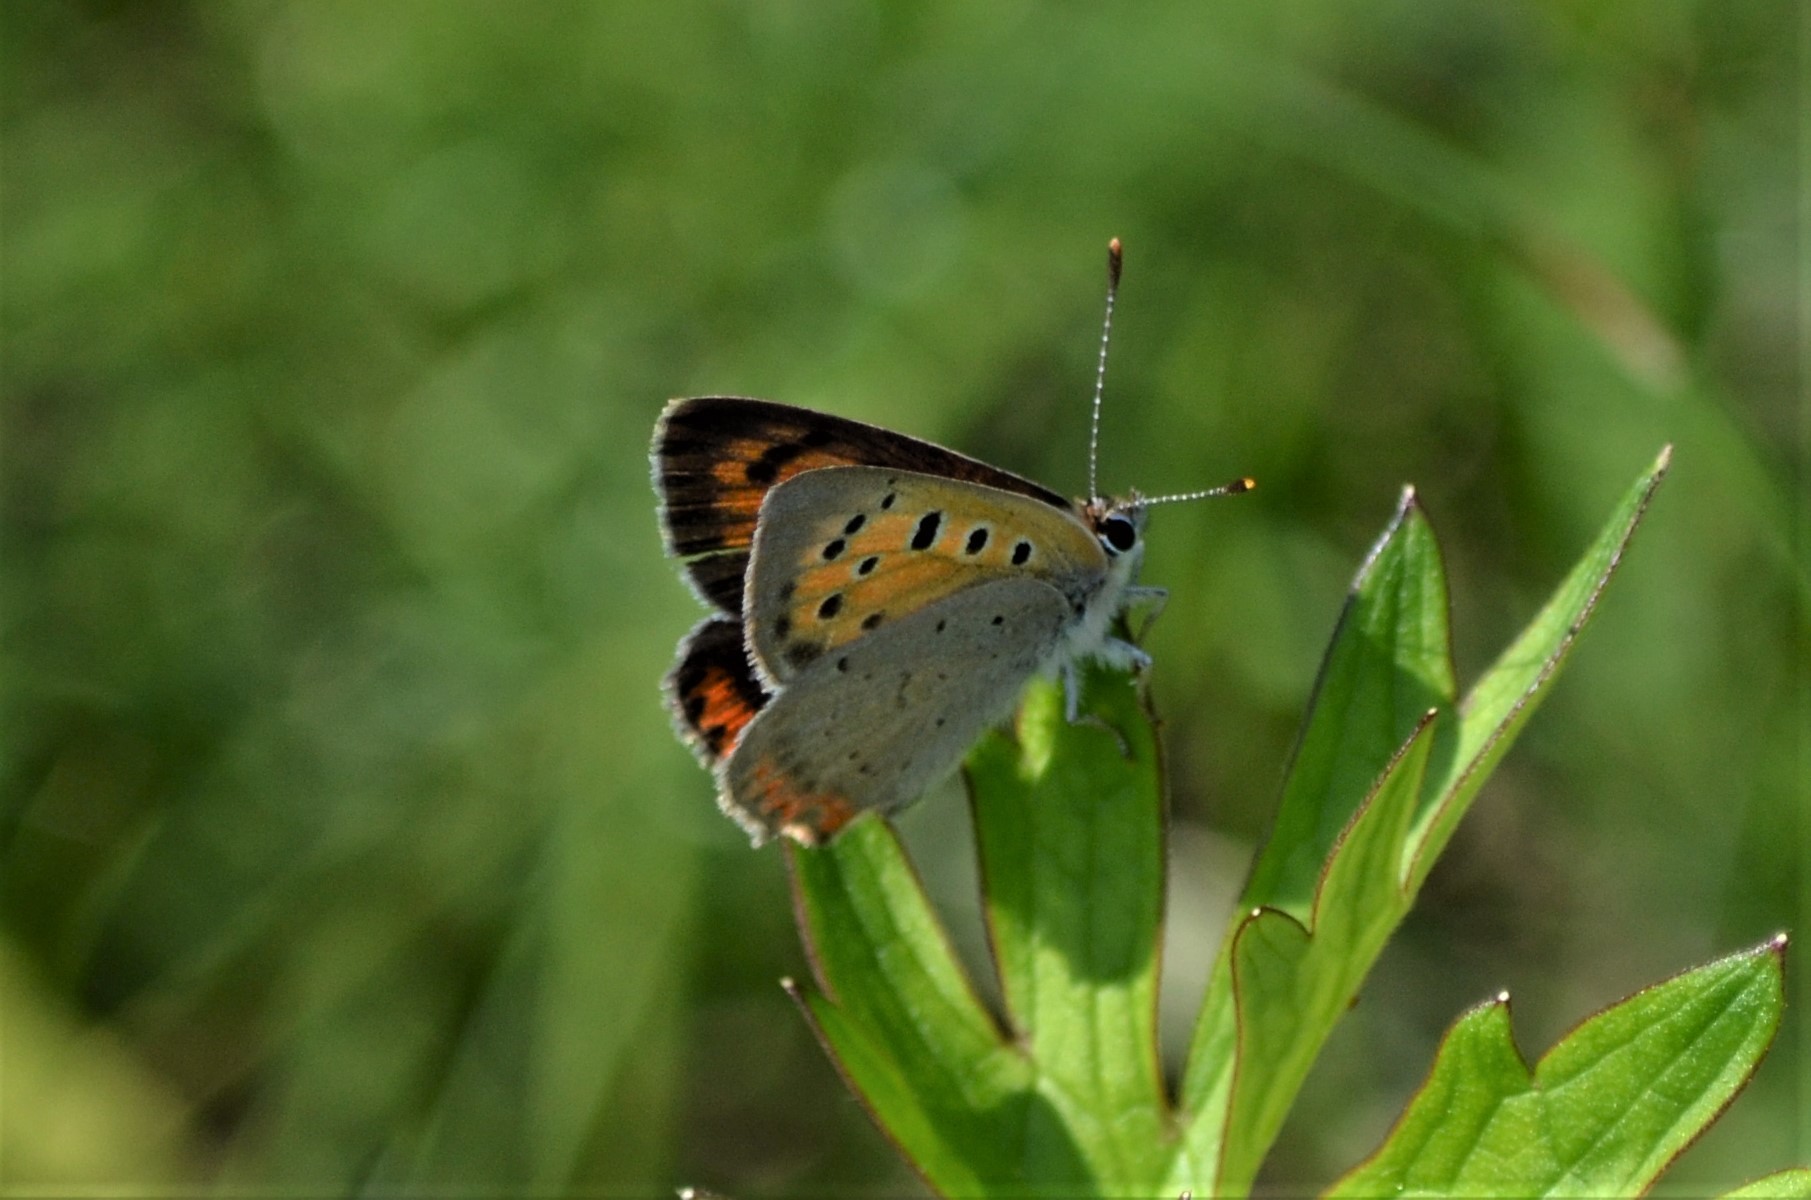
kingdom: Animalia
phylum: Arthropoda
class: Insecta
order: Lepidoptera
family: Lycaenidae
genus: Lycaena
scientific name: Lycaena phlaeas
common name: Small copper
